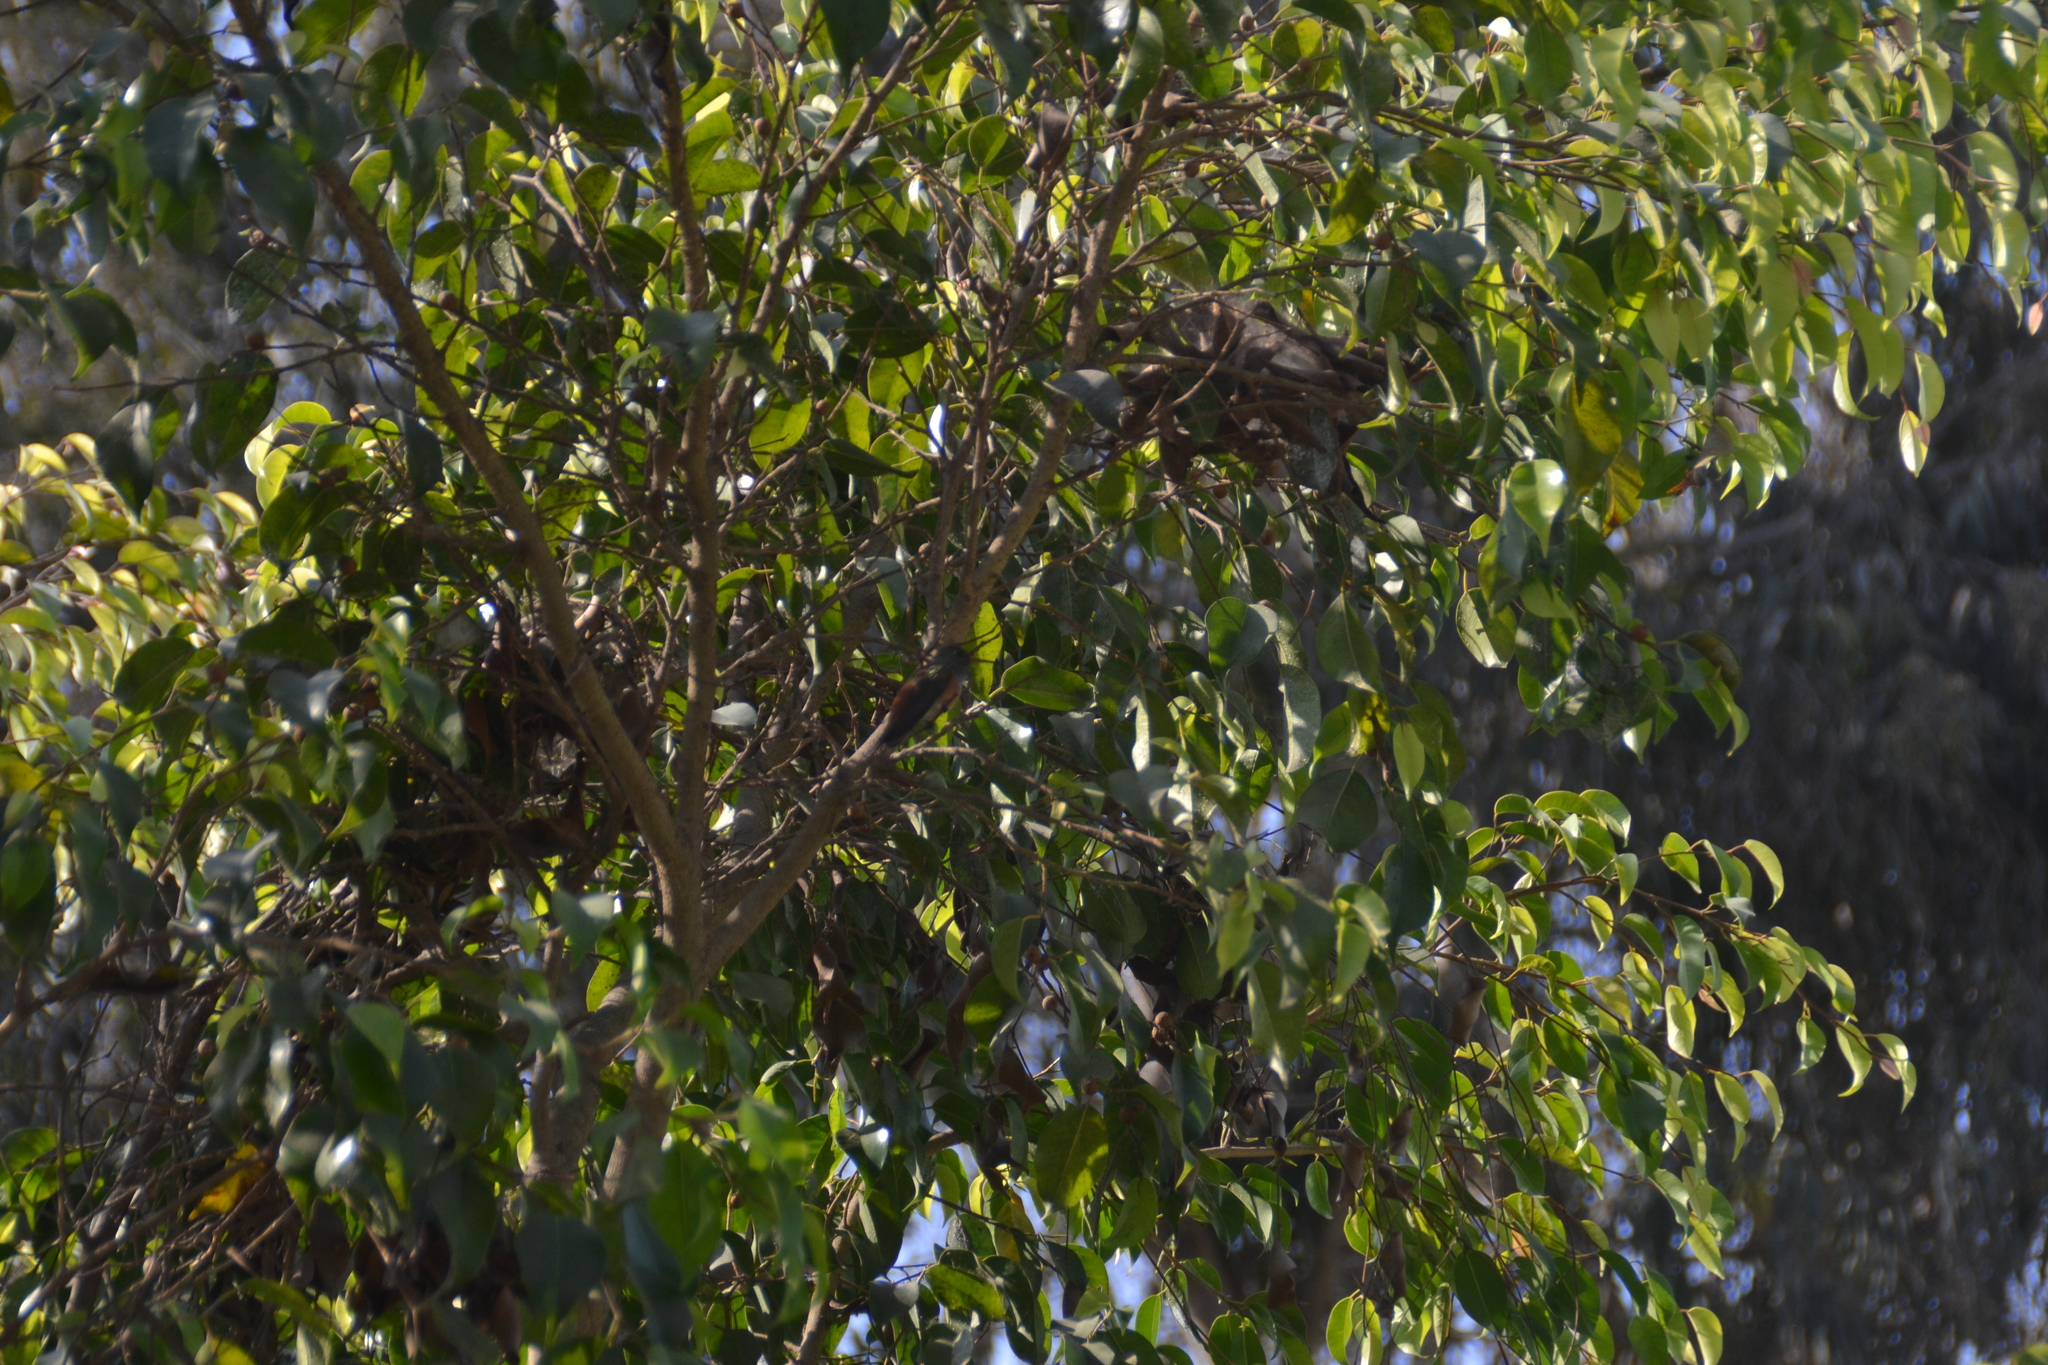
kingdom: Animalia
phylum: Chordata
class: Aves
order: Apodiformes
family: Trochilidae
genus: Amazilis
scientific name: Amazilis amazilia
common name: Amazilia hummingbird
